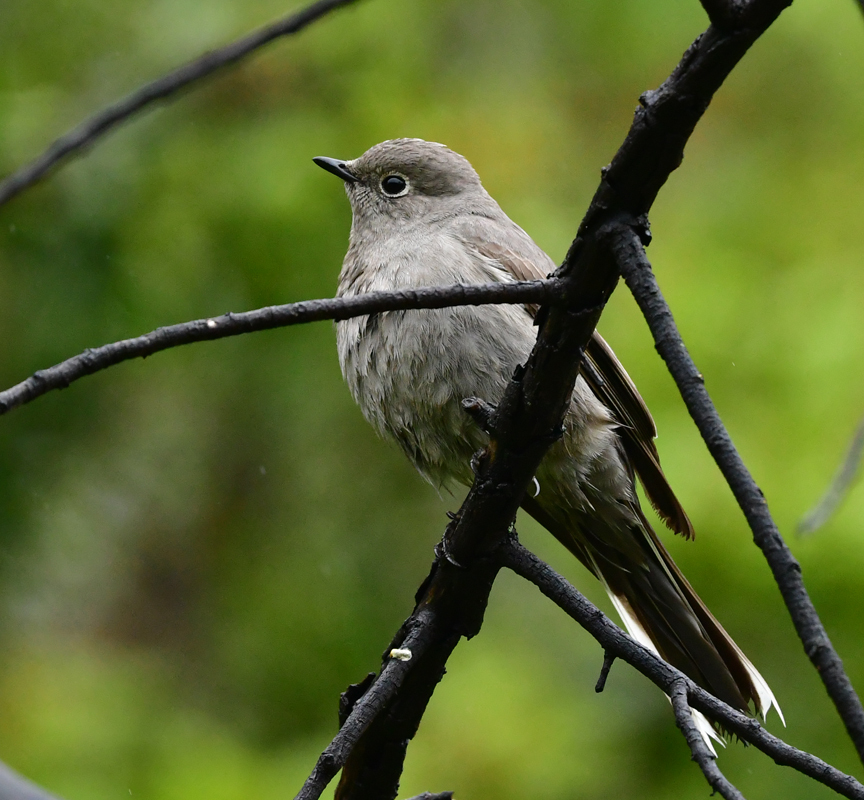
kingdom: Animalia
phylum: Chordata
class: Aves
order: Passeriformes
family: Turdidae
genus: Myadestes
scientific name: Myadestes townsendi
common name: Townsend's solitaire
